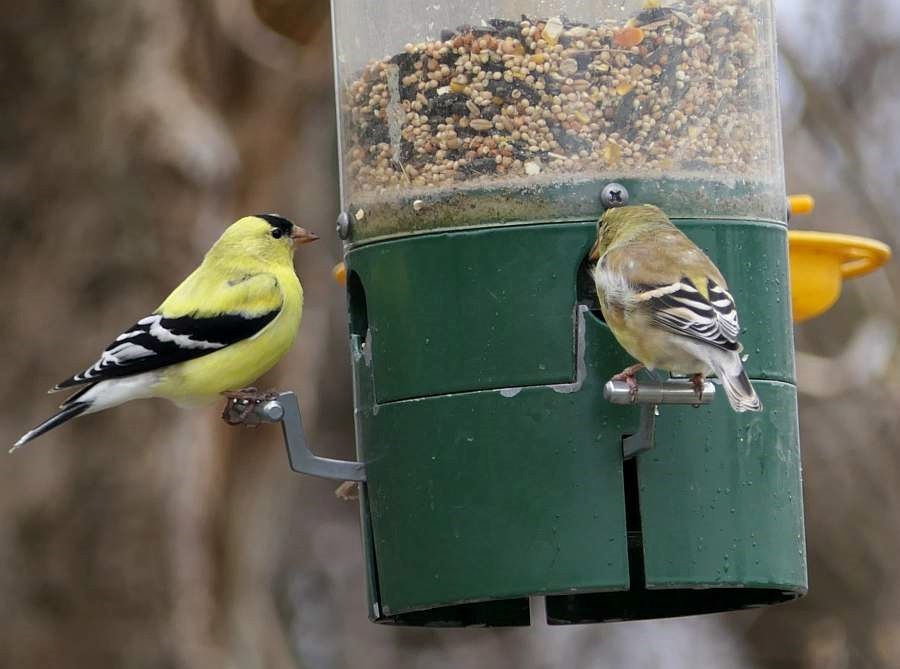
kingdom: Animalia
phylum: Chordata
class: Aves
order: Passeriformes
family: Fringillidae
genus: Spinus
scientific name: Spinus tristis
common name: American goldfinch
